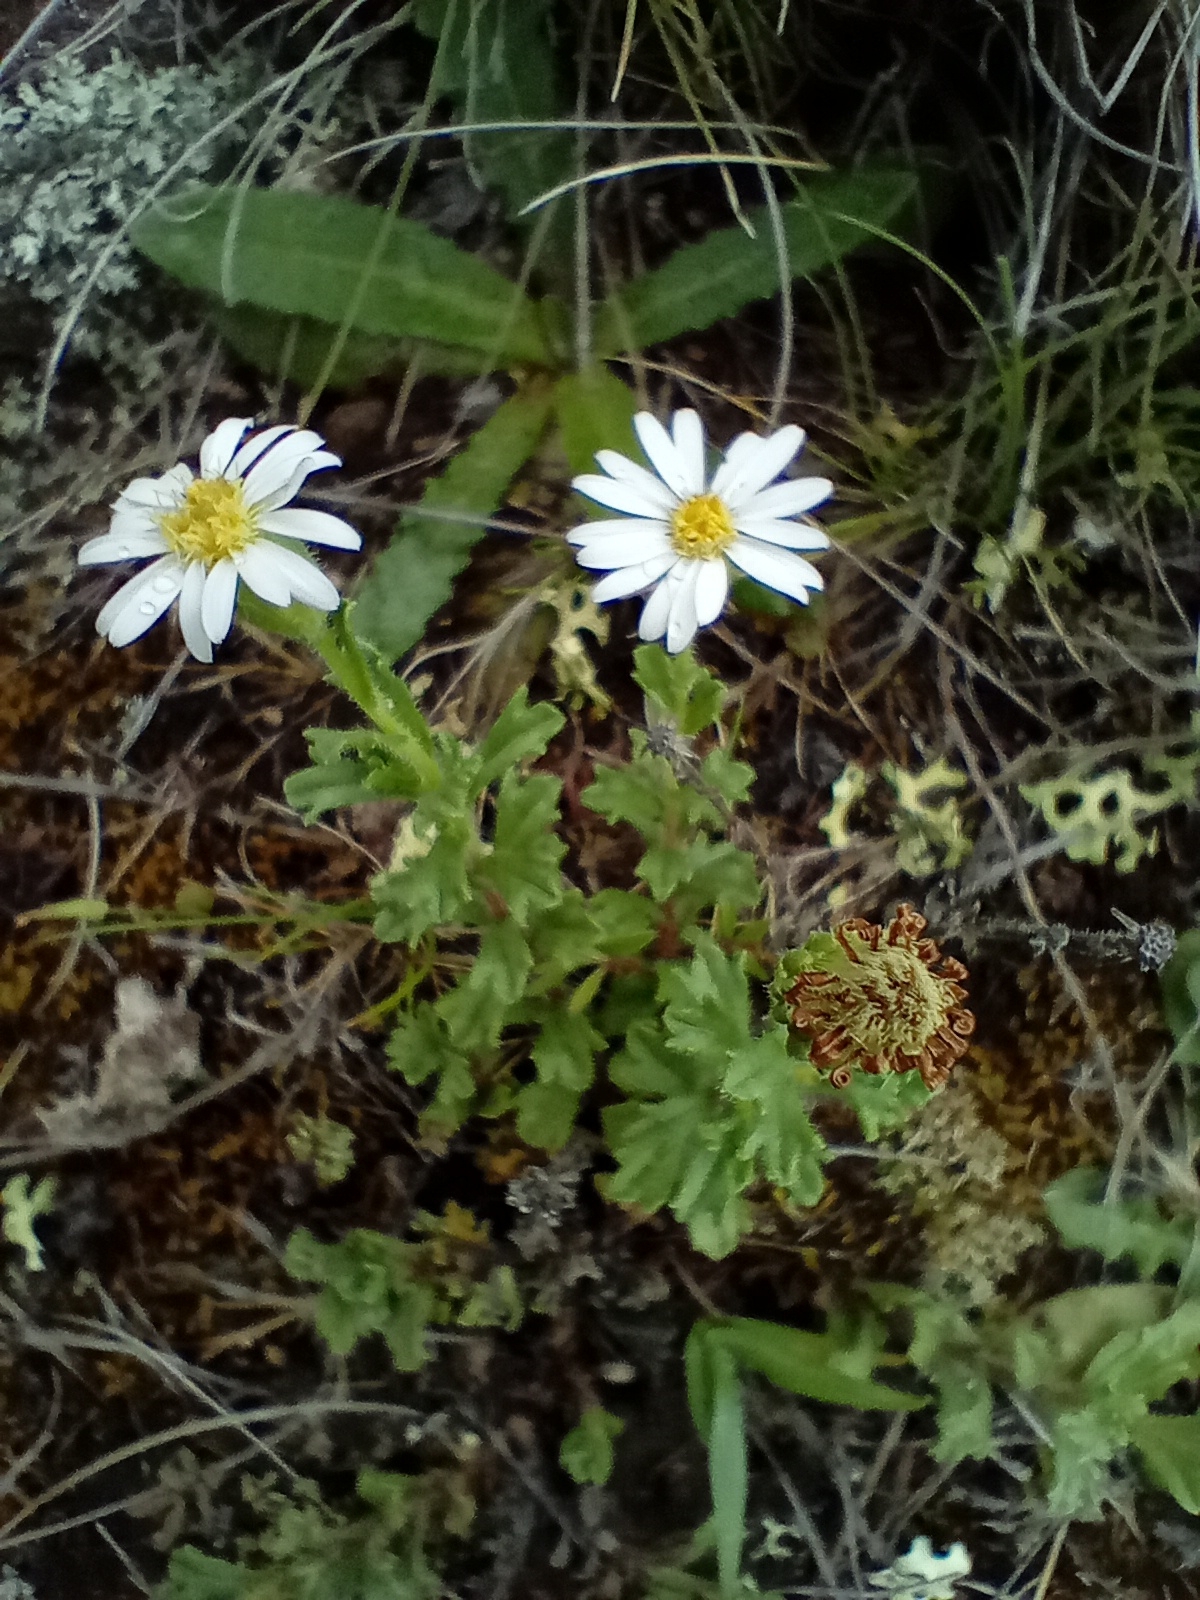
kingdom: Plantae
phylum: Tracheophyta
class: Magnoliopsida
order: Asterales
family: Asteraceae
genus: Vittadinia
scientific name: Vittadinia australis
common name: White fuzzweed
